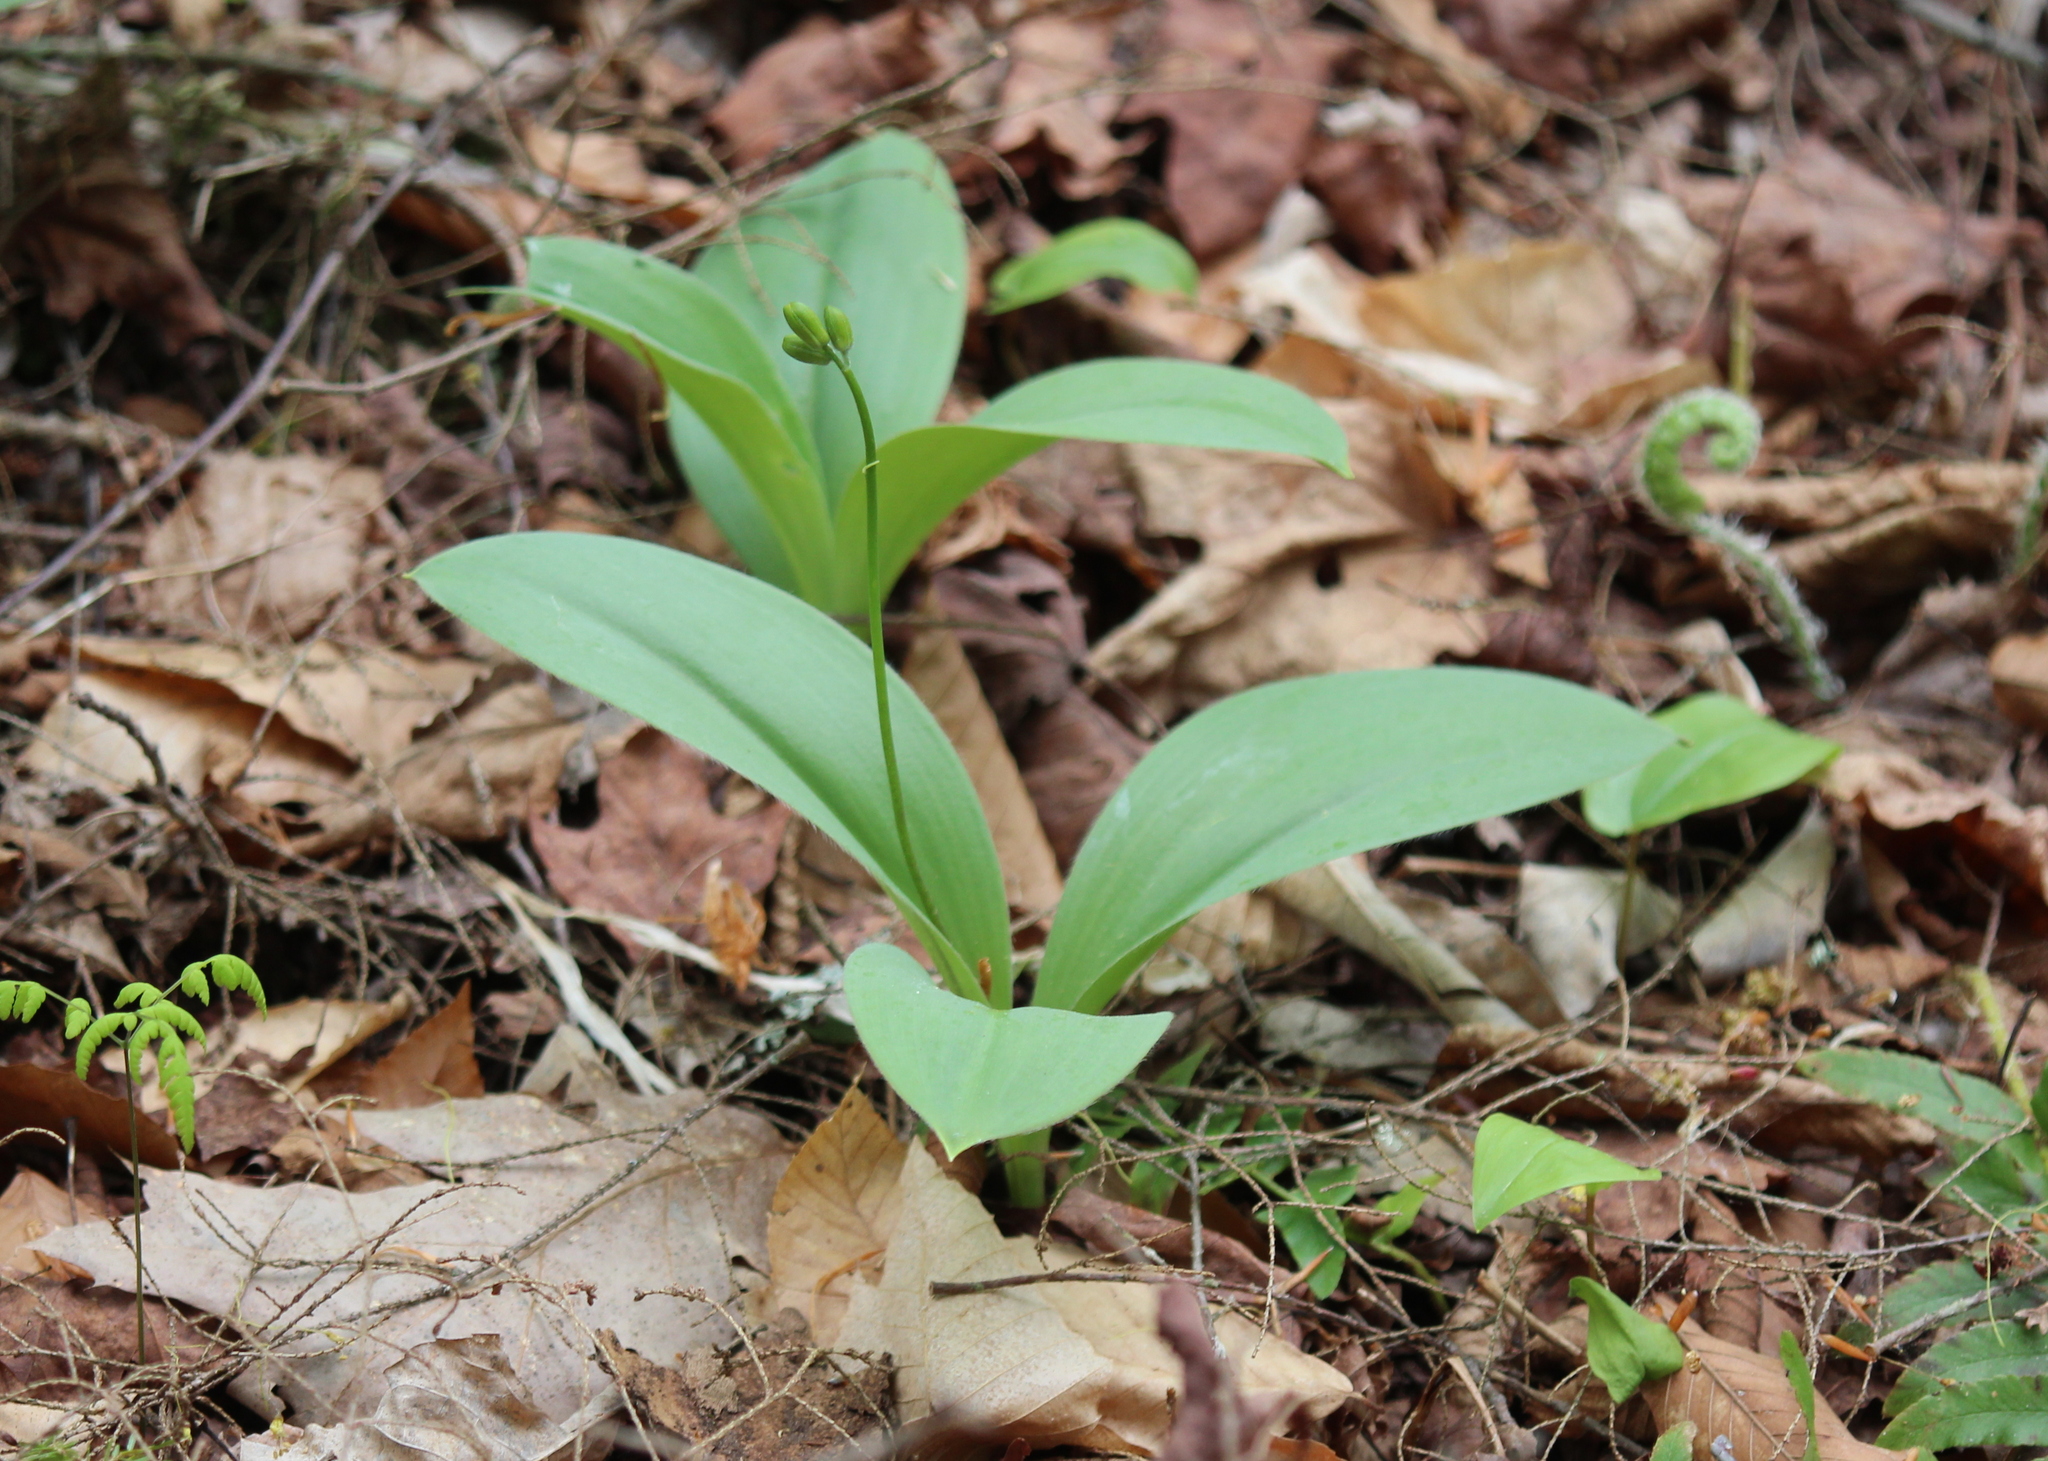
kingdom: Plantae
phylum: Tracheophyta
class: Liliopsida
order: Liliales
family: Liliaceae
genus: Clintonia
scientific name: Clintonia borealis
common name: Yellow clintonia
